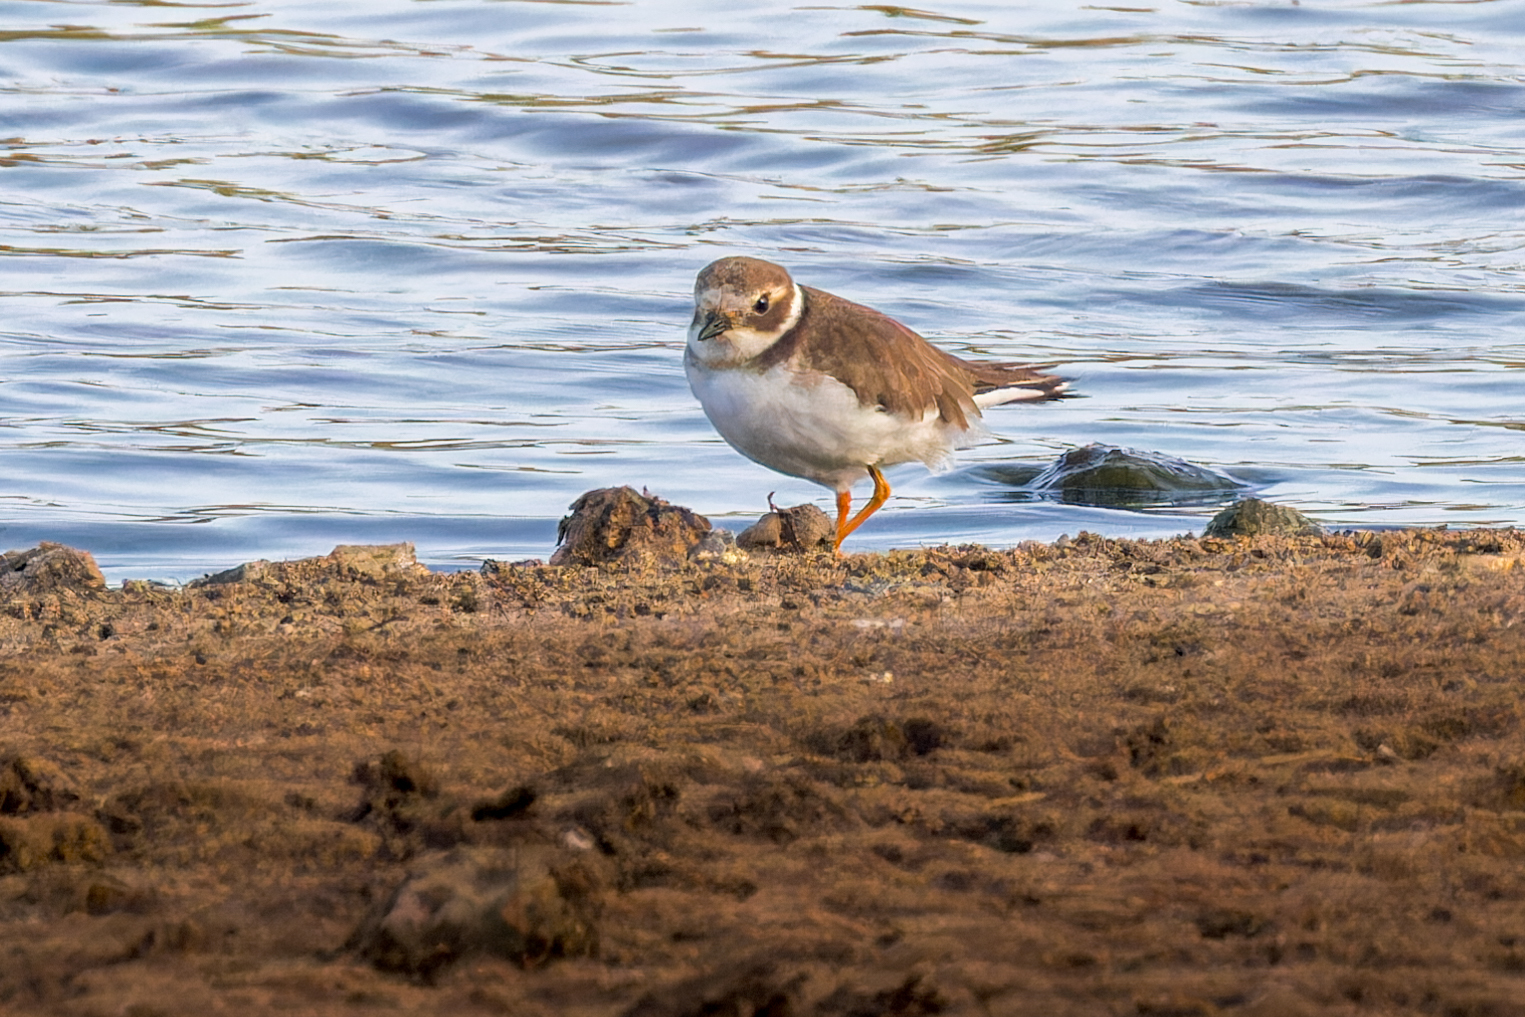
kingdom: Animalia
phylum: Chordata
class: Aves
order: Charadriiformes
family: Charadriidae
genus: Charadrius
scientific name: Charadrius hiaticula
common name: Common ringed plover
